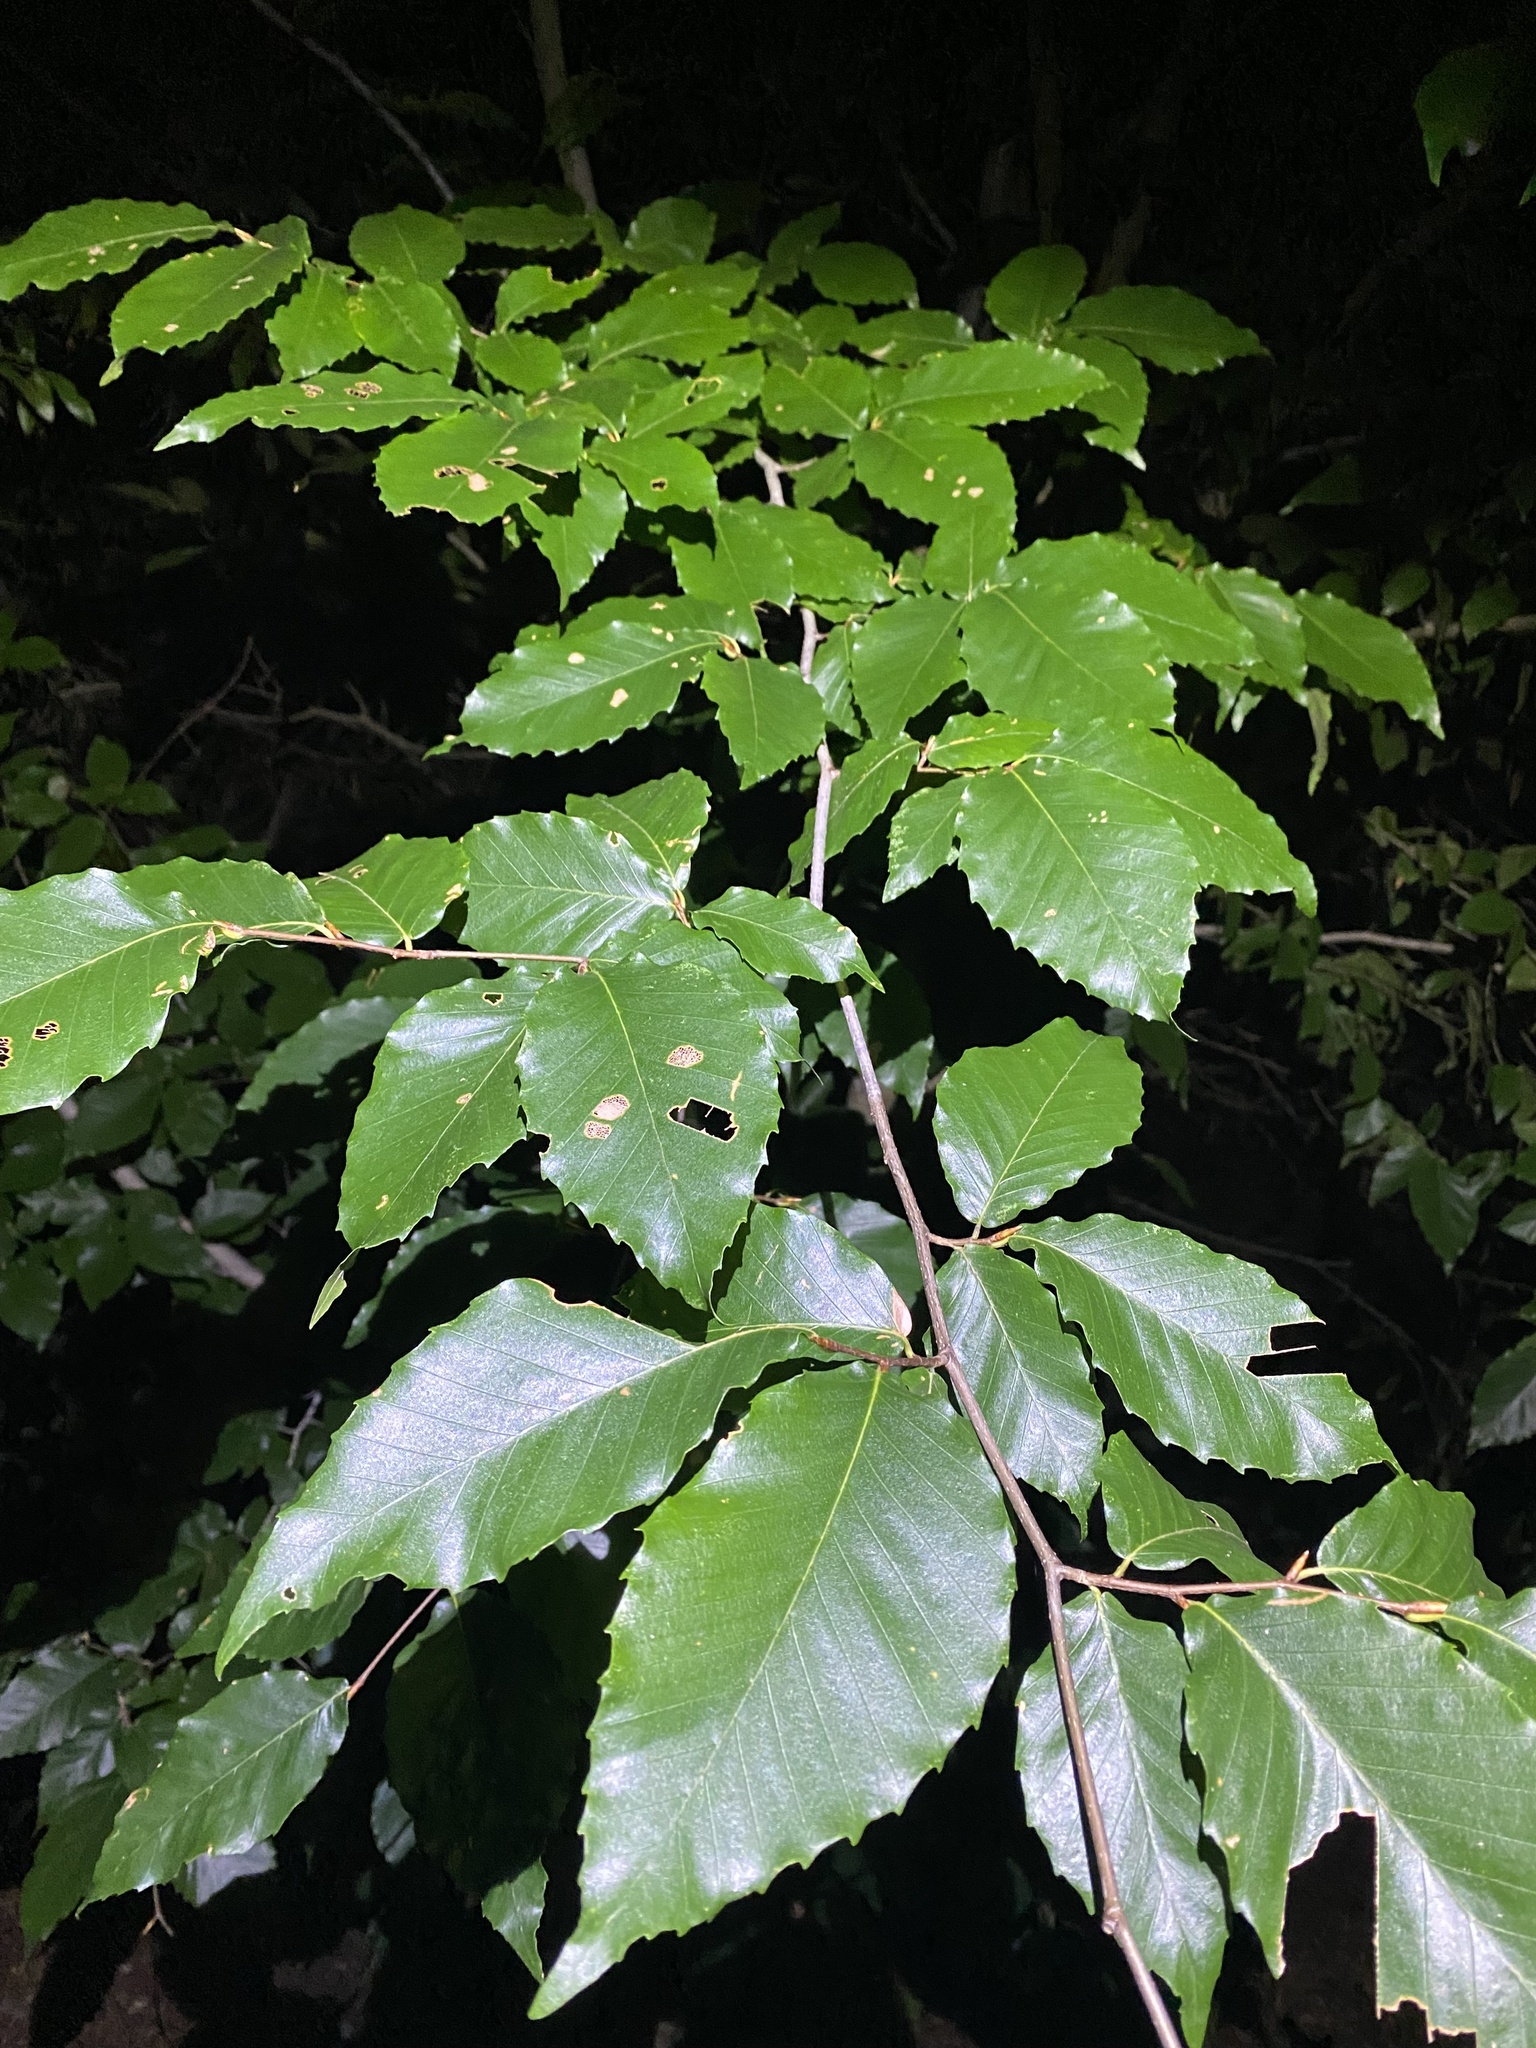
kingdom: Plantae
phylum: Tracheophyta
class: Magnoliopsida
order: Fagales
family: Fagaceae
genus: Fagus
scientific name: Fagus grandifolia
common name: American beech
